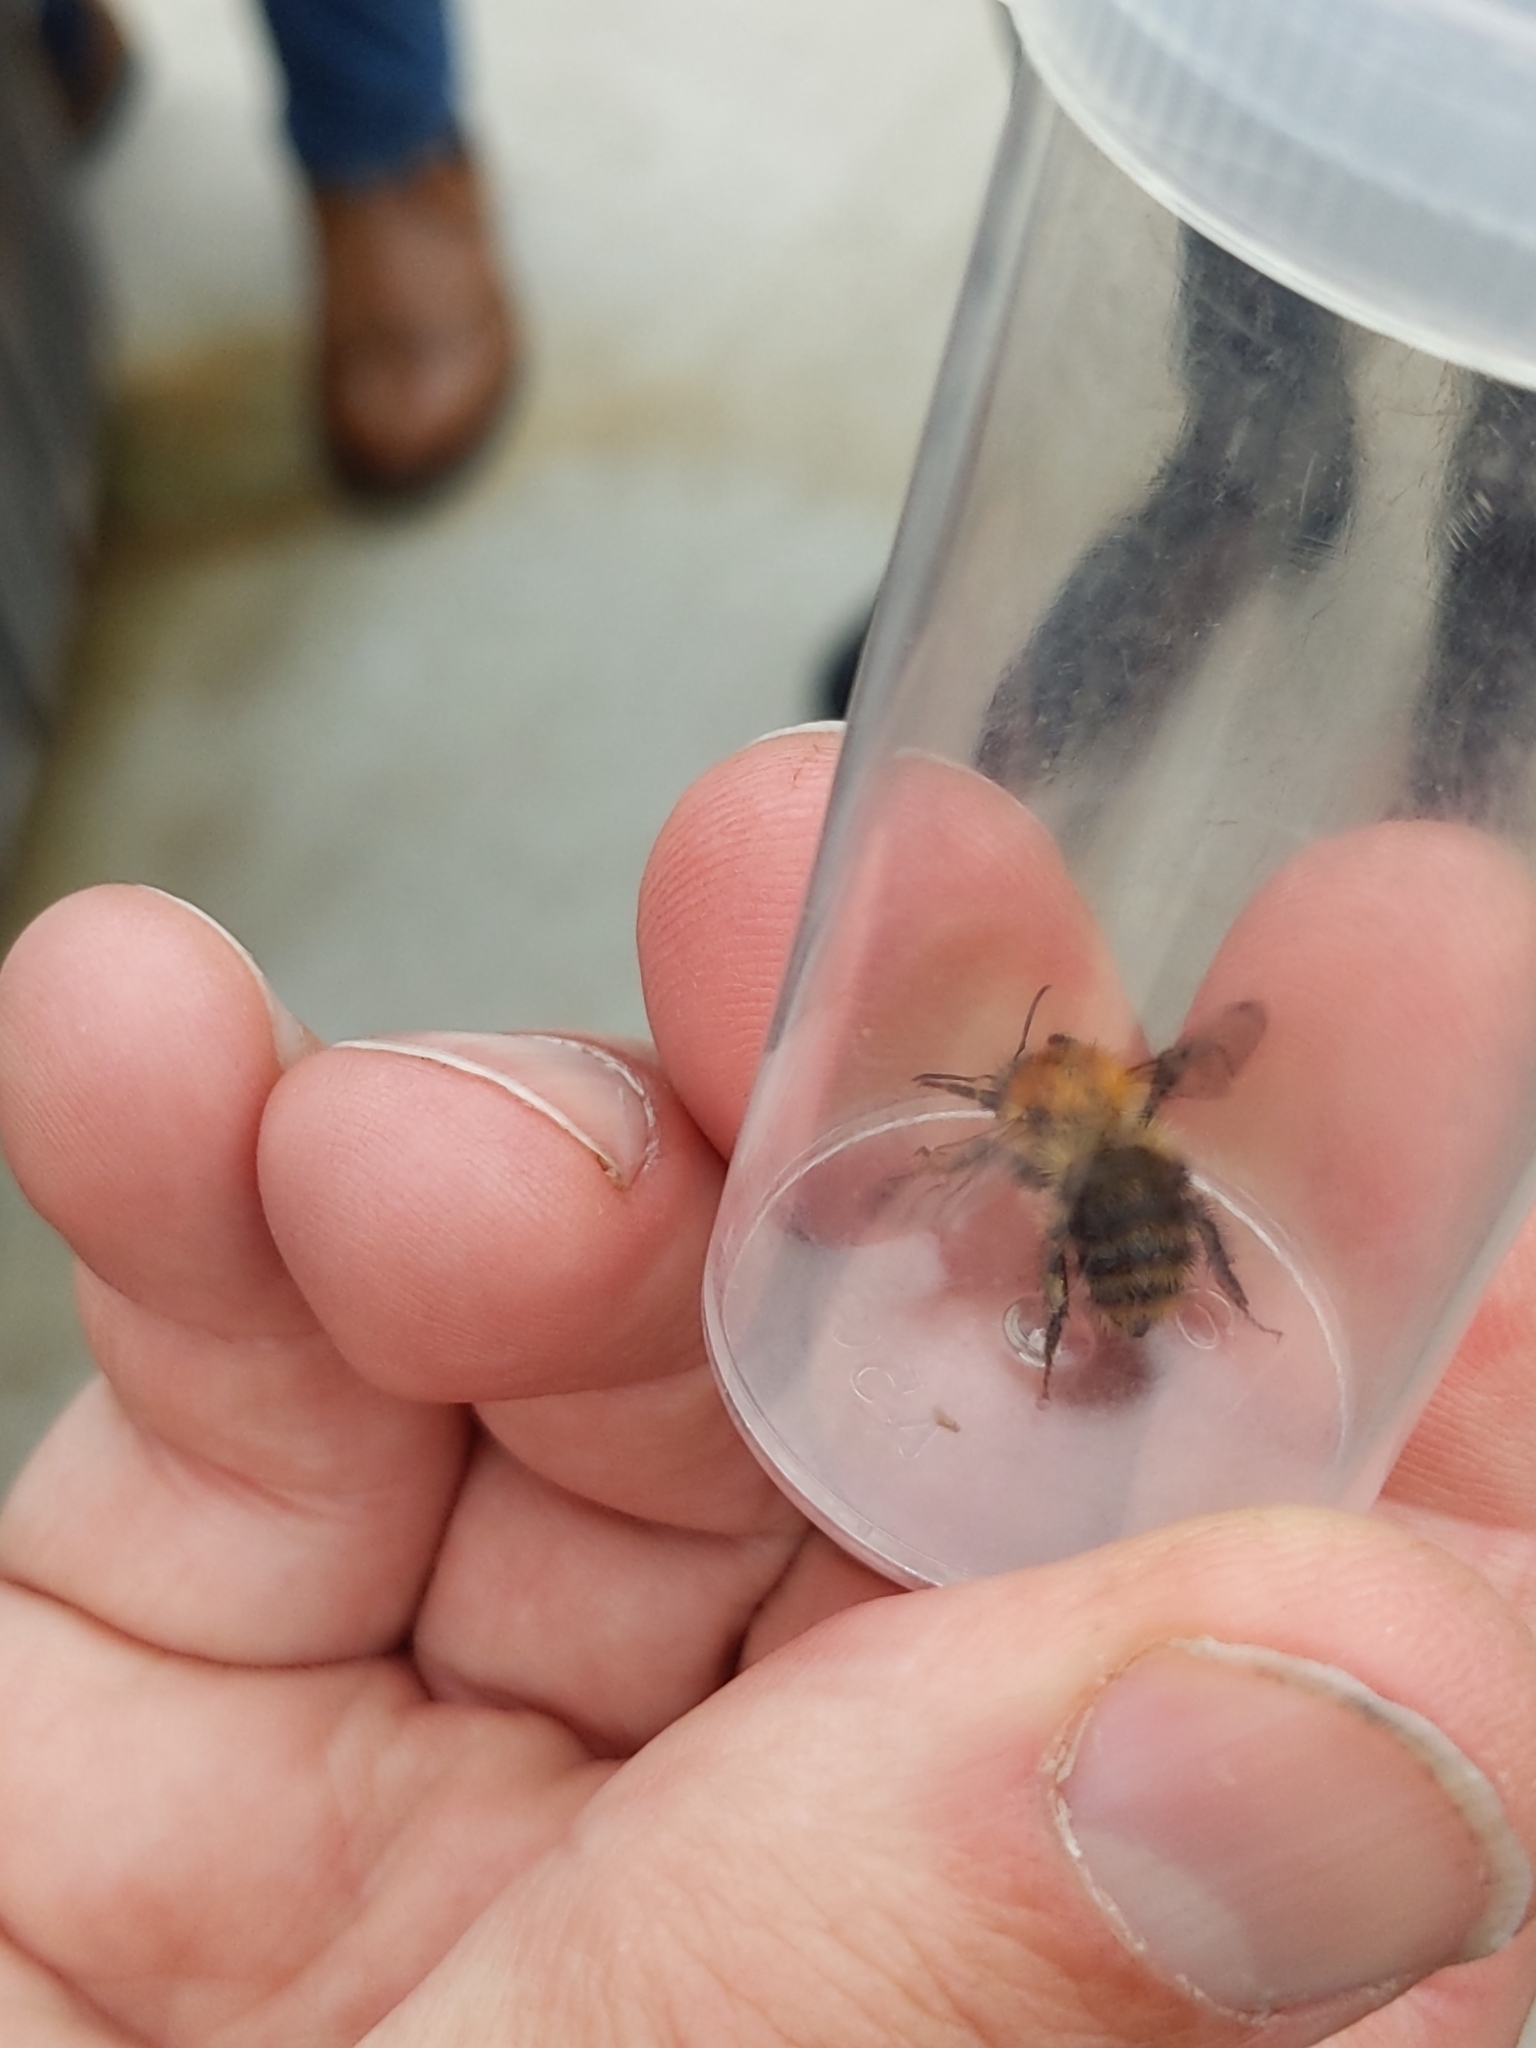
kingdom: Animalia
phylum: Arthropoda
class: Insecta
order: Hymenoptera
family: Apidae
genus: Bombus
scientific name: Bombus pascuorum
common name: Common carder bee
